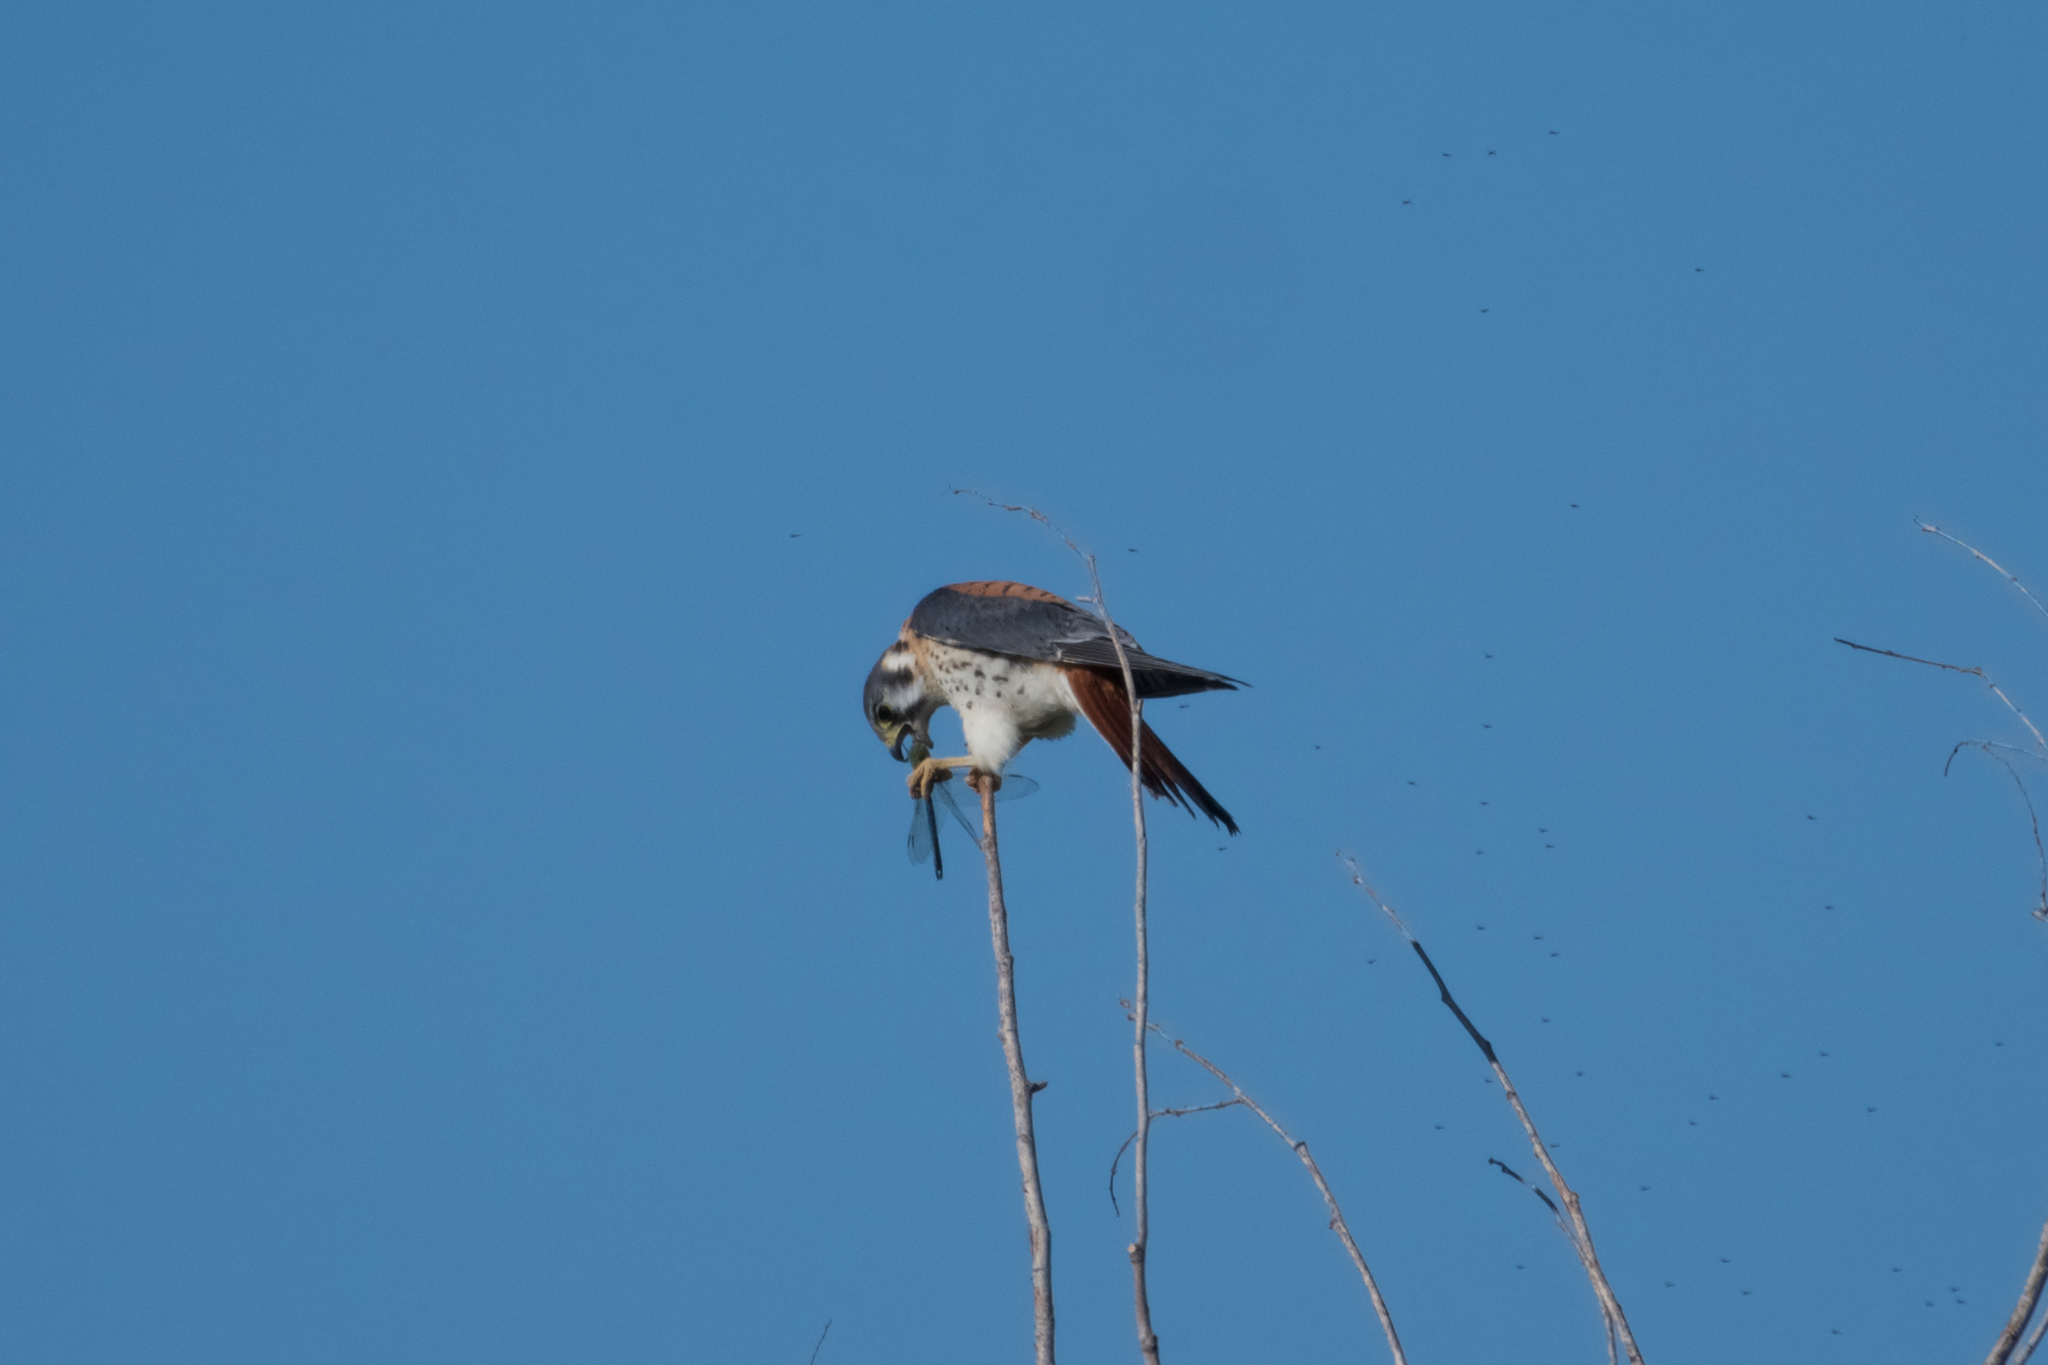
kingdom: Animalia
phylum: Chordata
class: Aves
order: Falconiformes
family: Falconidae
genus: Falco
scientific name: Falco sparverius
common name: American kestrel
